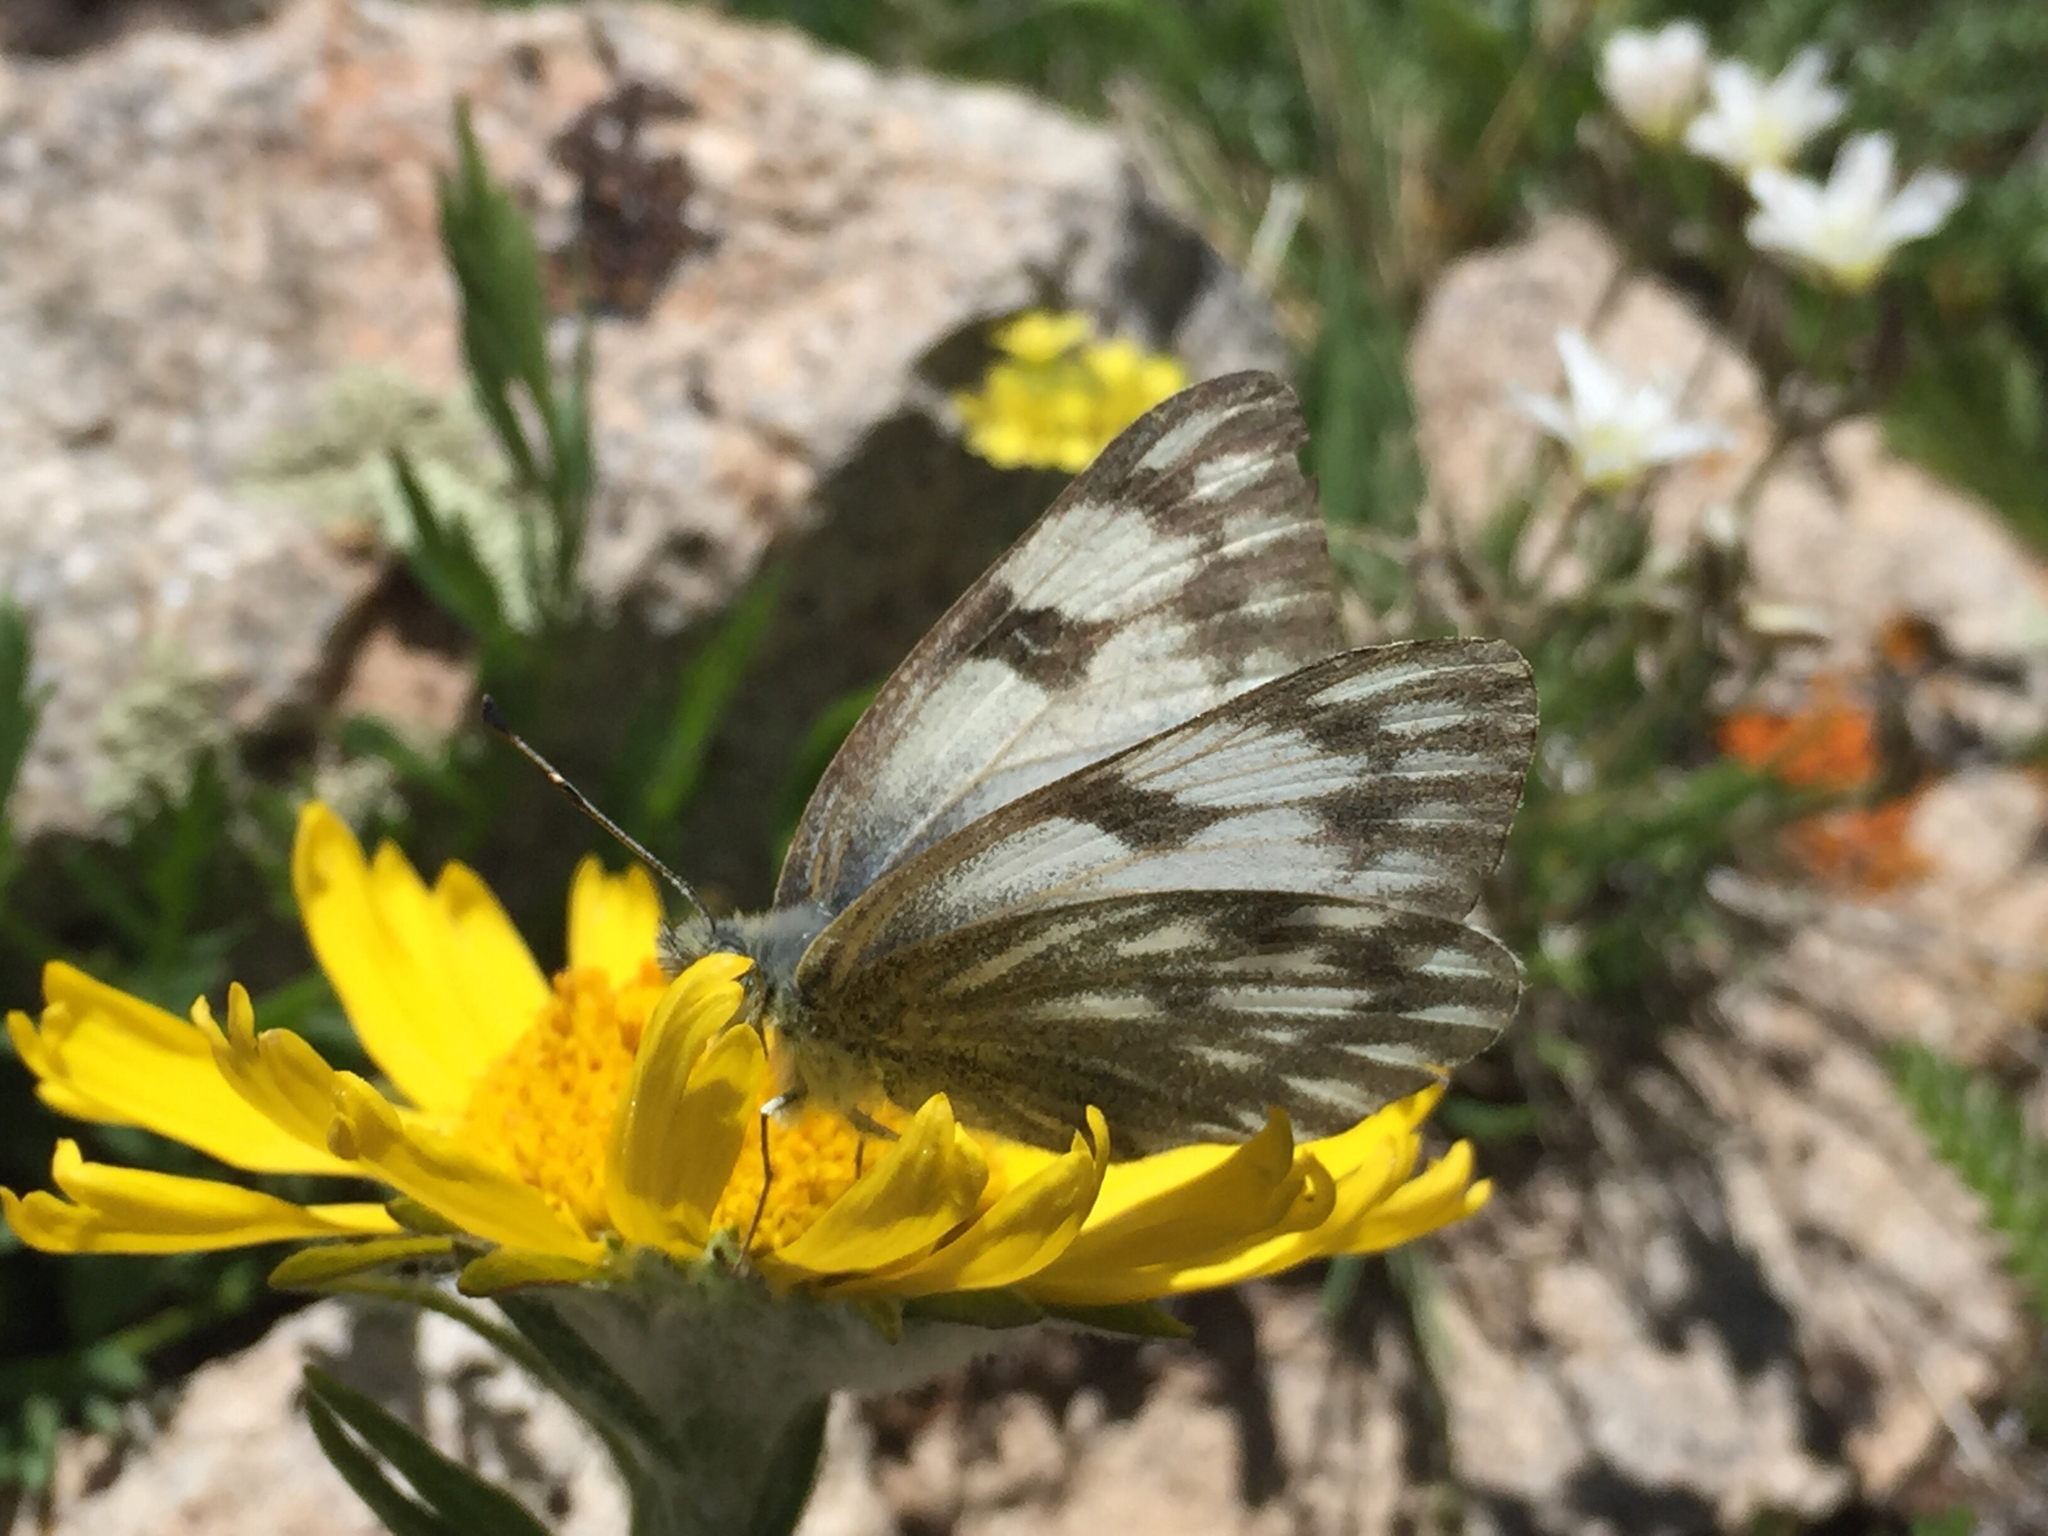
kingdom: Animalia
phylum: Arthropoda
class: Insecta
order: Lepidoptera
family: Pieridae
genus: Pontia
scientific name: Pontia occidentalis
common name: Western white
